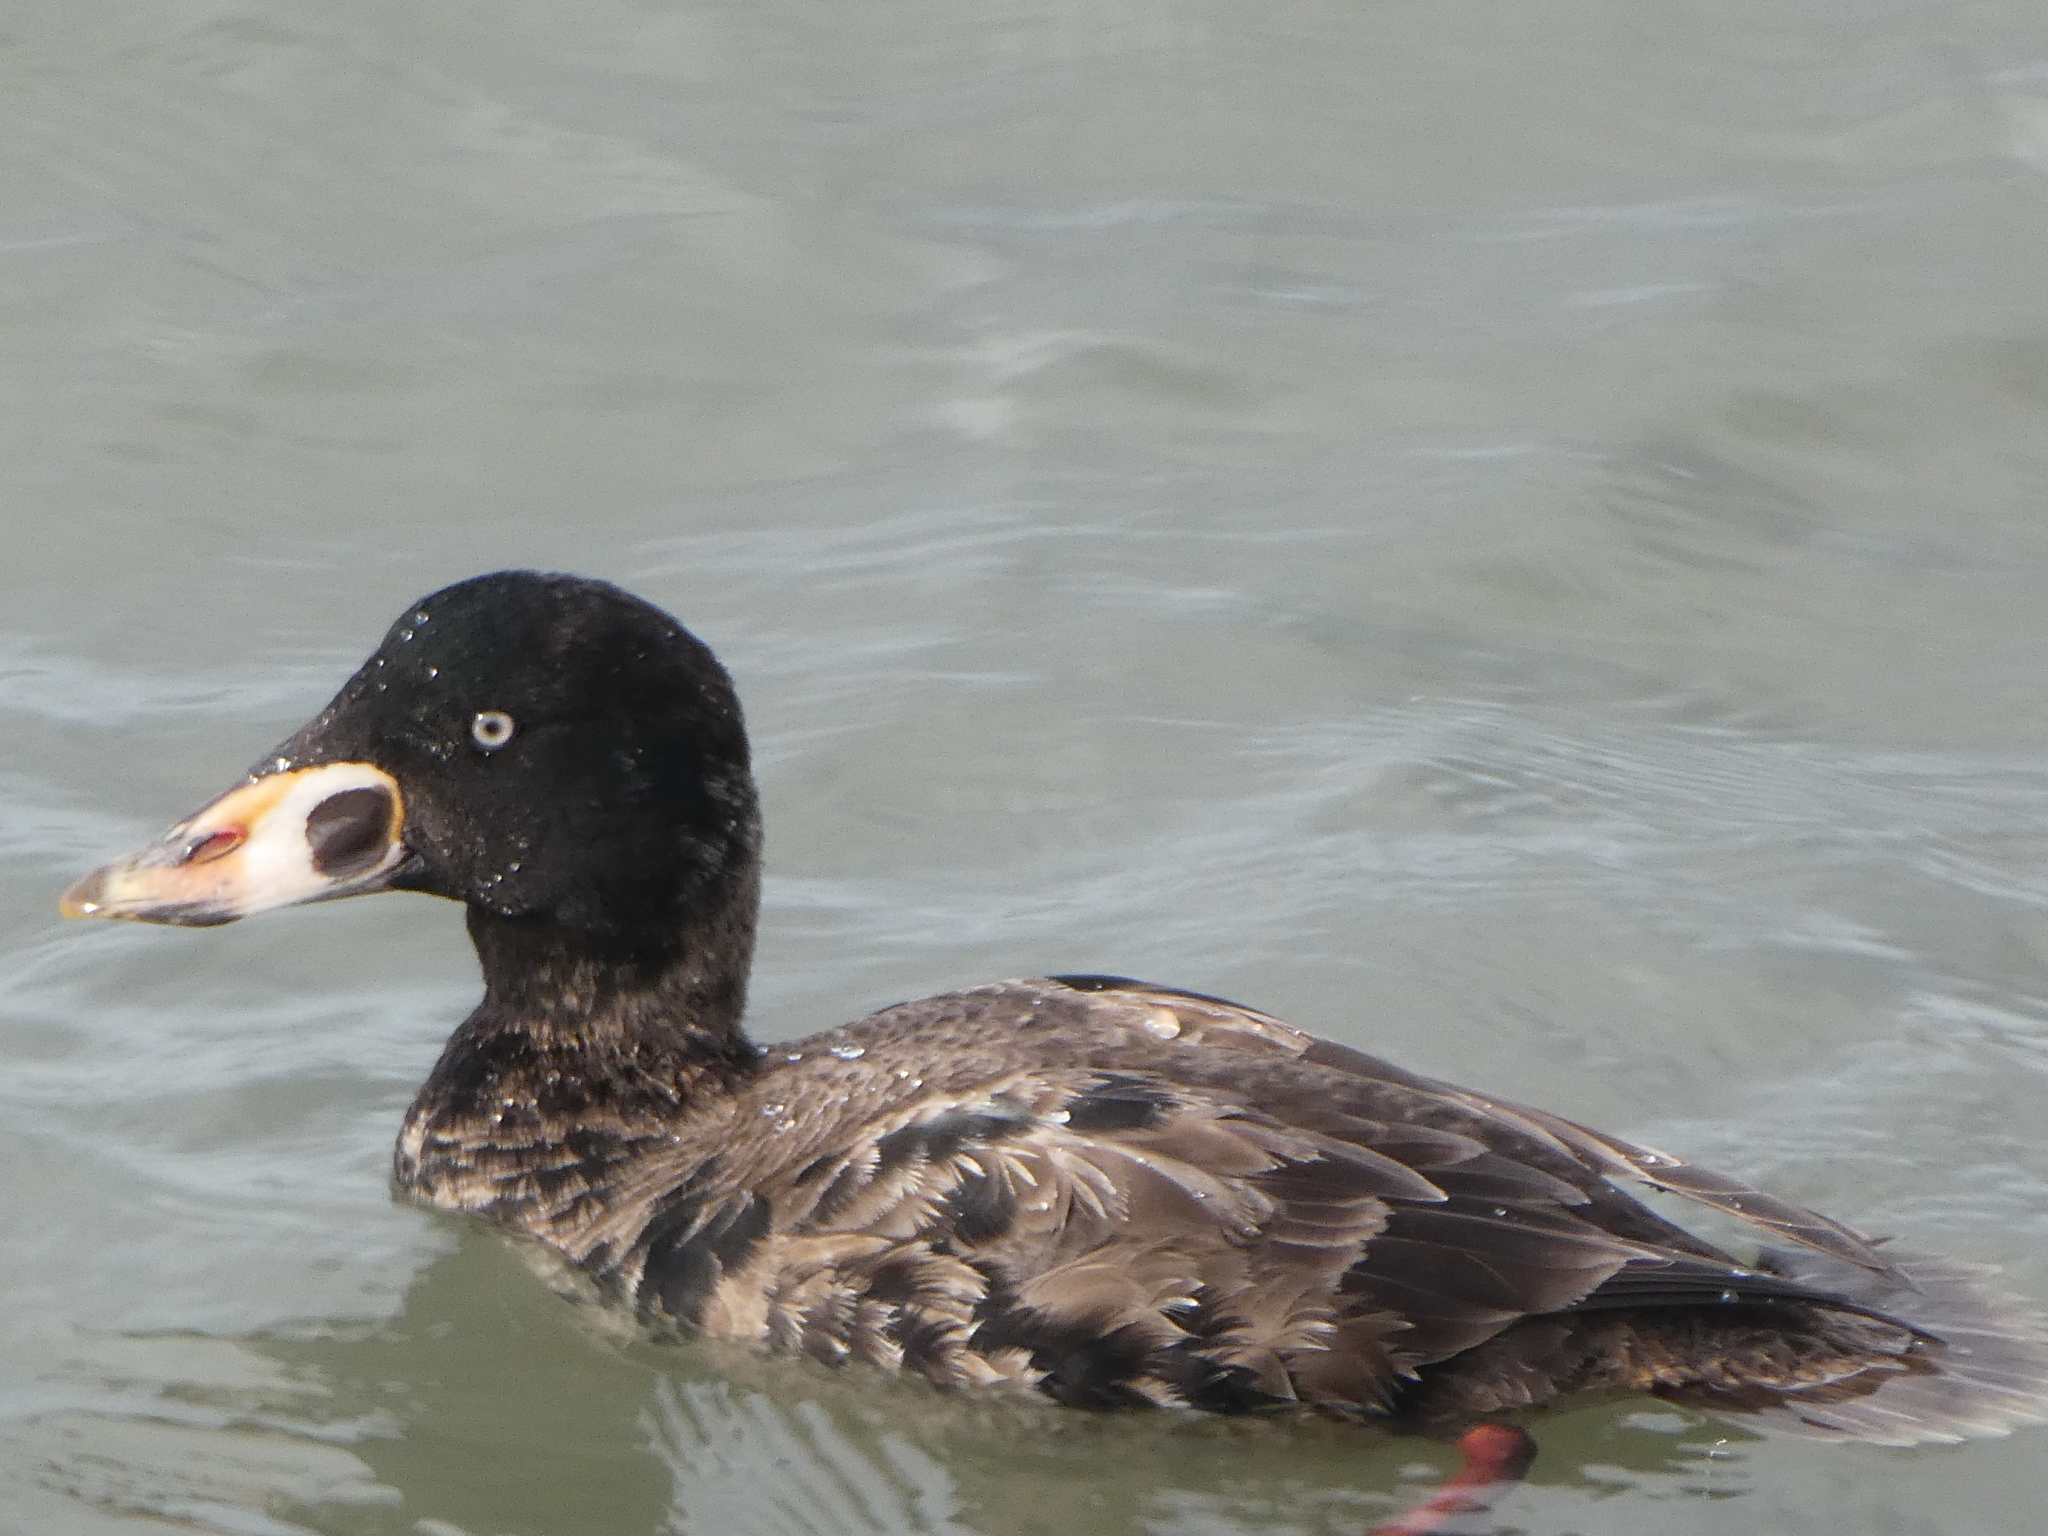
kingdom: Animalia
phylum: Chordata
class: Aves
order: Anseriformes
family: Anatidae
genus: Melanitta
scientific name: Melanitta perspicillata
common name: Surf scoter
